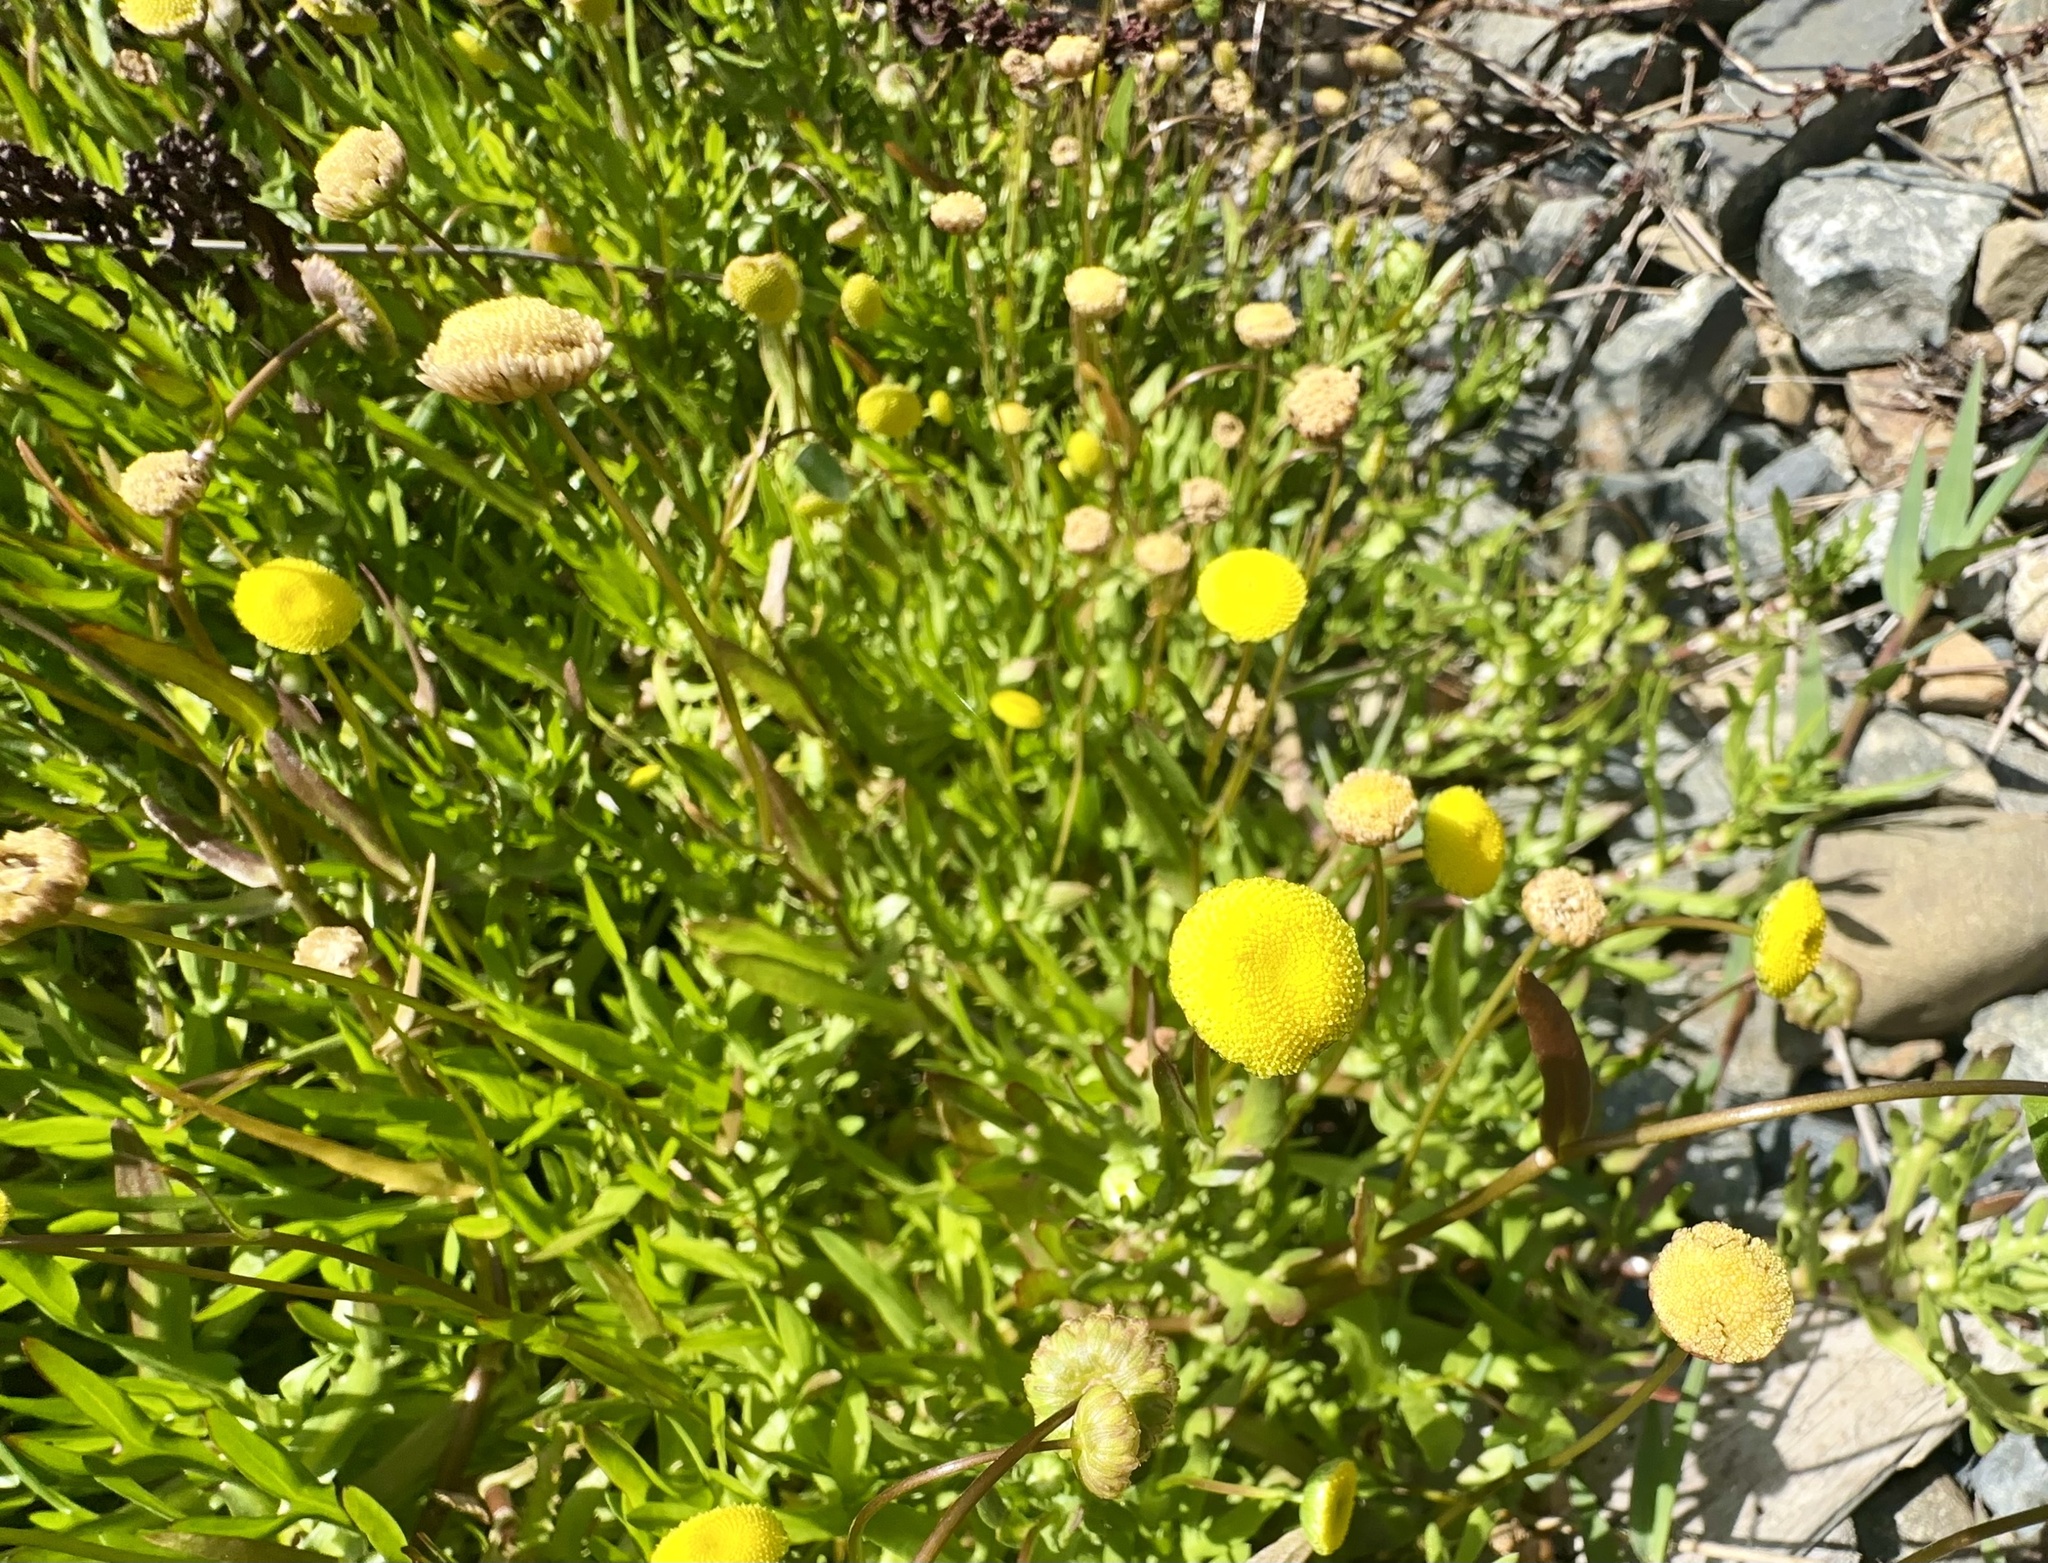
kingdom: Plantae
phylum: Tracheophyta
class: Magnoliopsida
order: Asterales
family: Asteraceae
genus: Cotula
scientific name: Cotula coronopifolia
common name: Buttonweed
